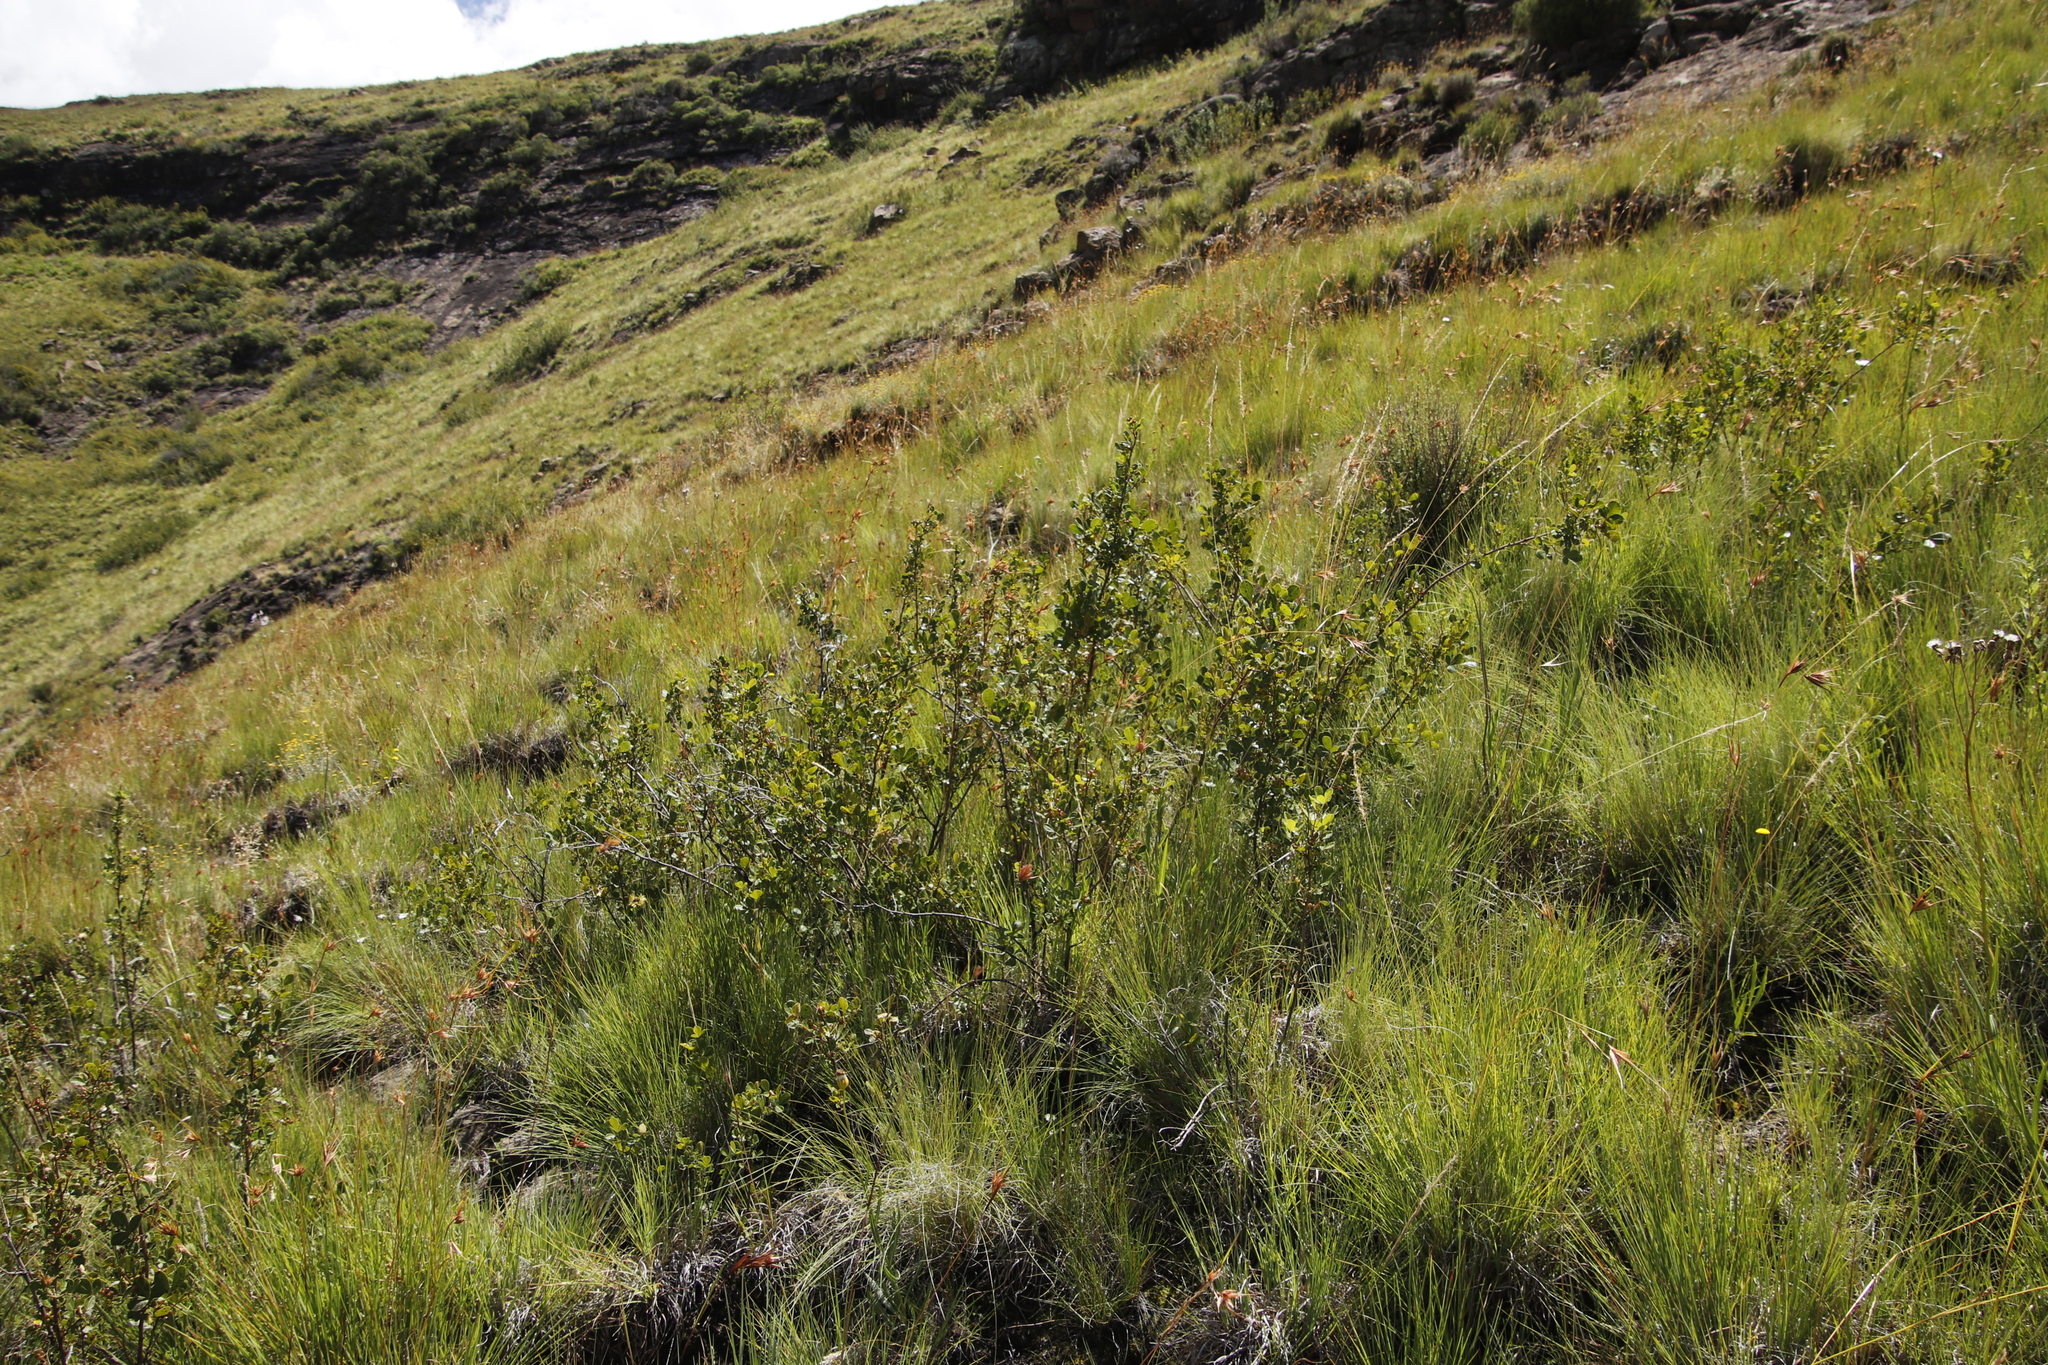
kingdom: Plantae
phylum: Tracheophyta
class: Magnoliopsida
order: Sapindales
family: Anacardiaceae
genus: Searsia
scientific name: Searsia divaricata
